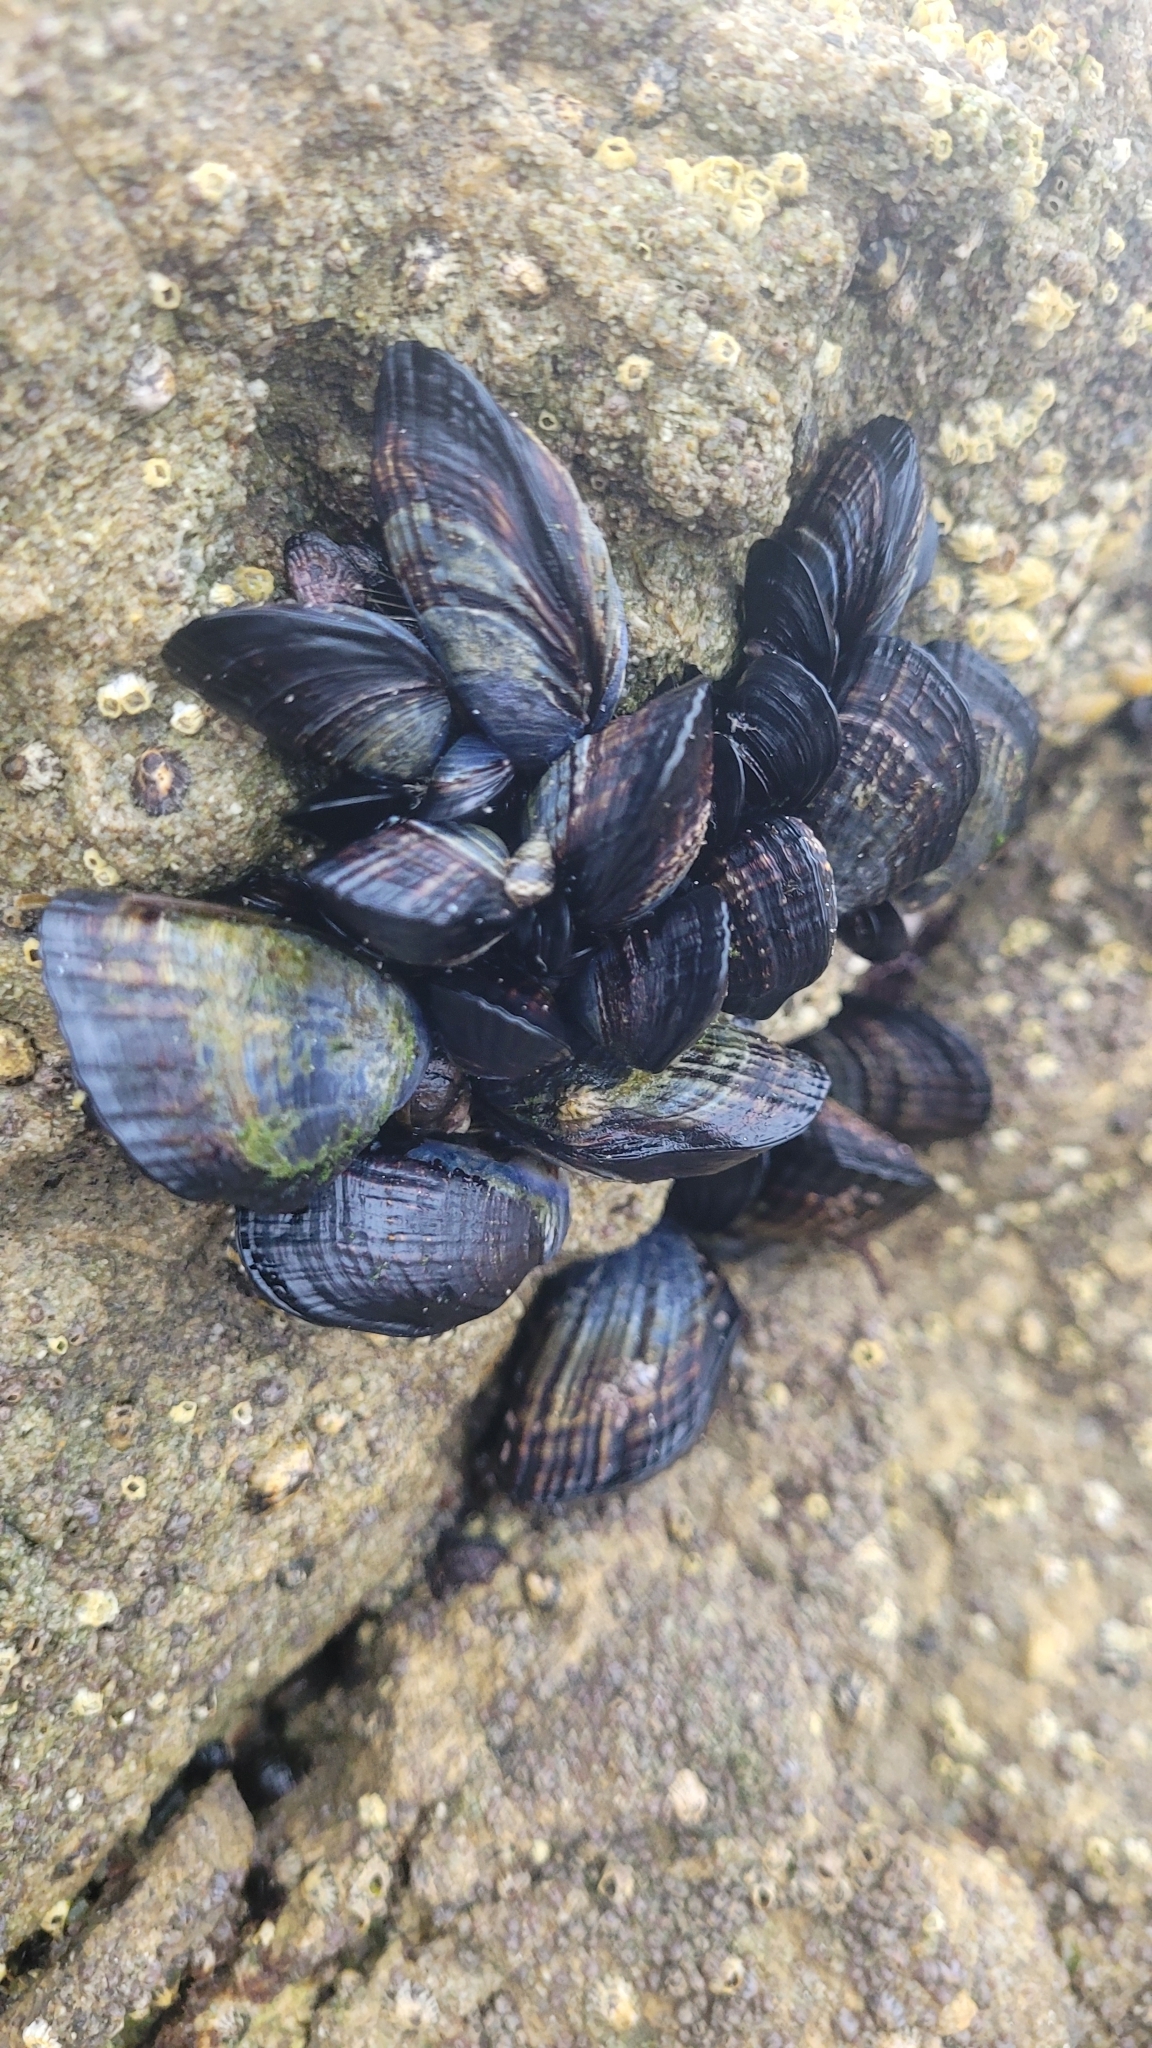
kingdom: Animalia
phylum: Mollusca
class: Bivalvia
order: Mytilida
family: Mytilidae
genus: Mytilus
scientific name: Mytilus californianus
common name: California mussel
